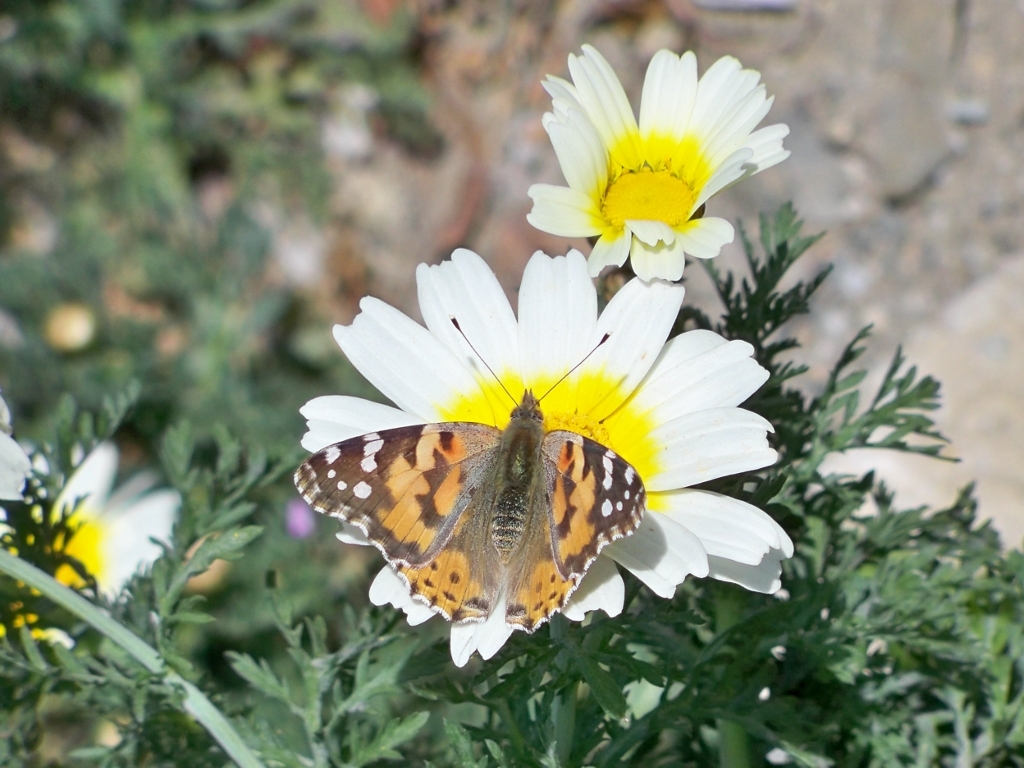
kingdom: Animalia
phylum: Arthropoda
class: Insecta
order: Lepidoptera
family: Nymphalidae
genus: Vanessa
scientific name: Vanessa cardui
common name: Painted lady
